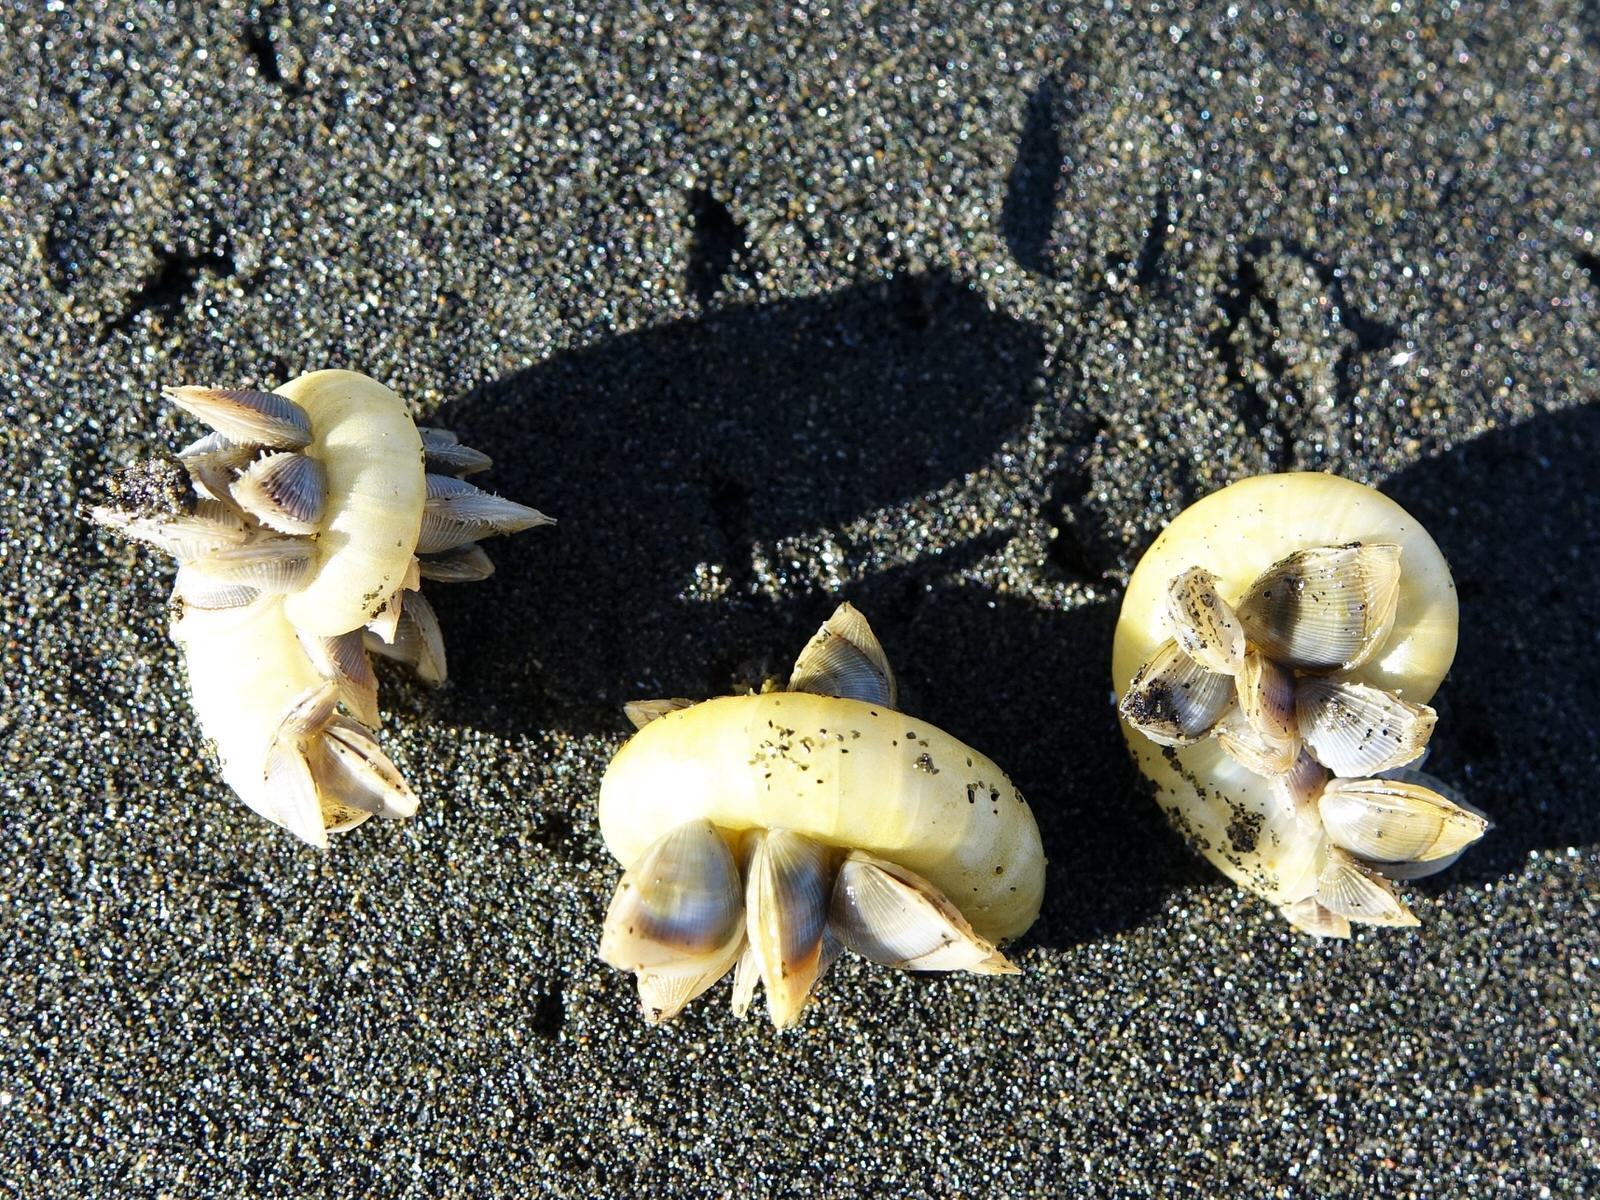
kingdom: Animalia
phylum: Arthropoda
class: Maxillopoda
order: Pedunculata
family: Lepadidae
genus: Lepas
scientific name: Lepas pectinata
